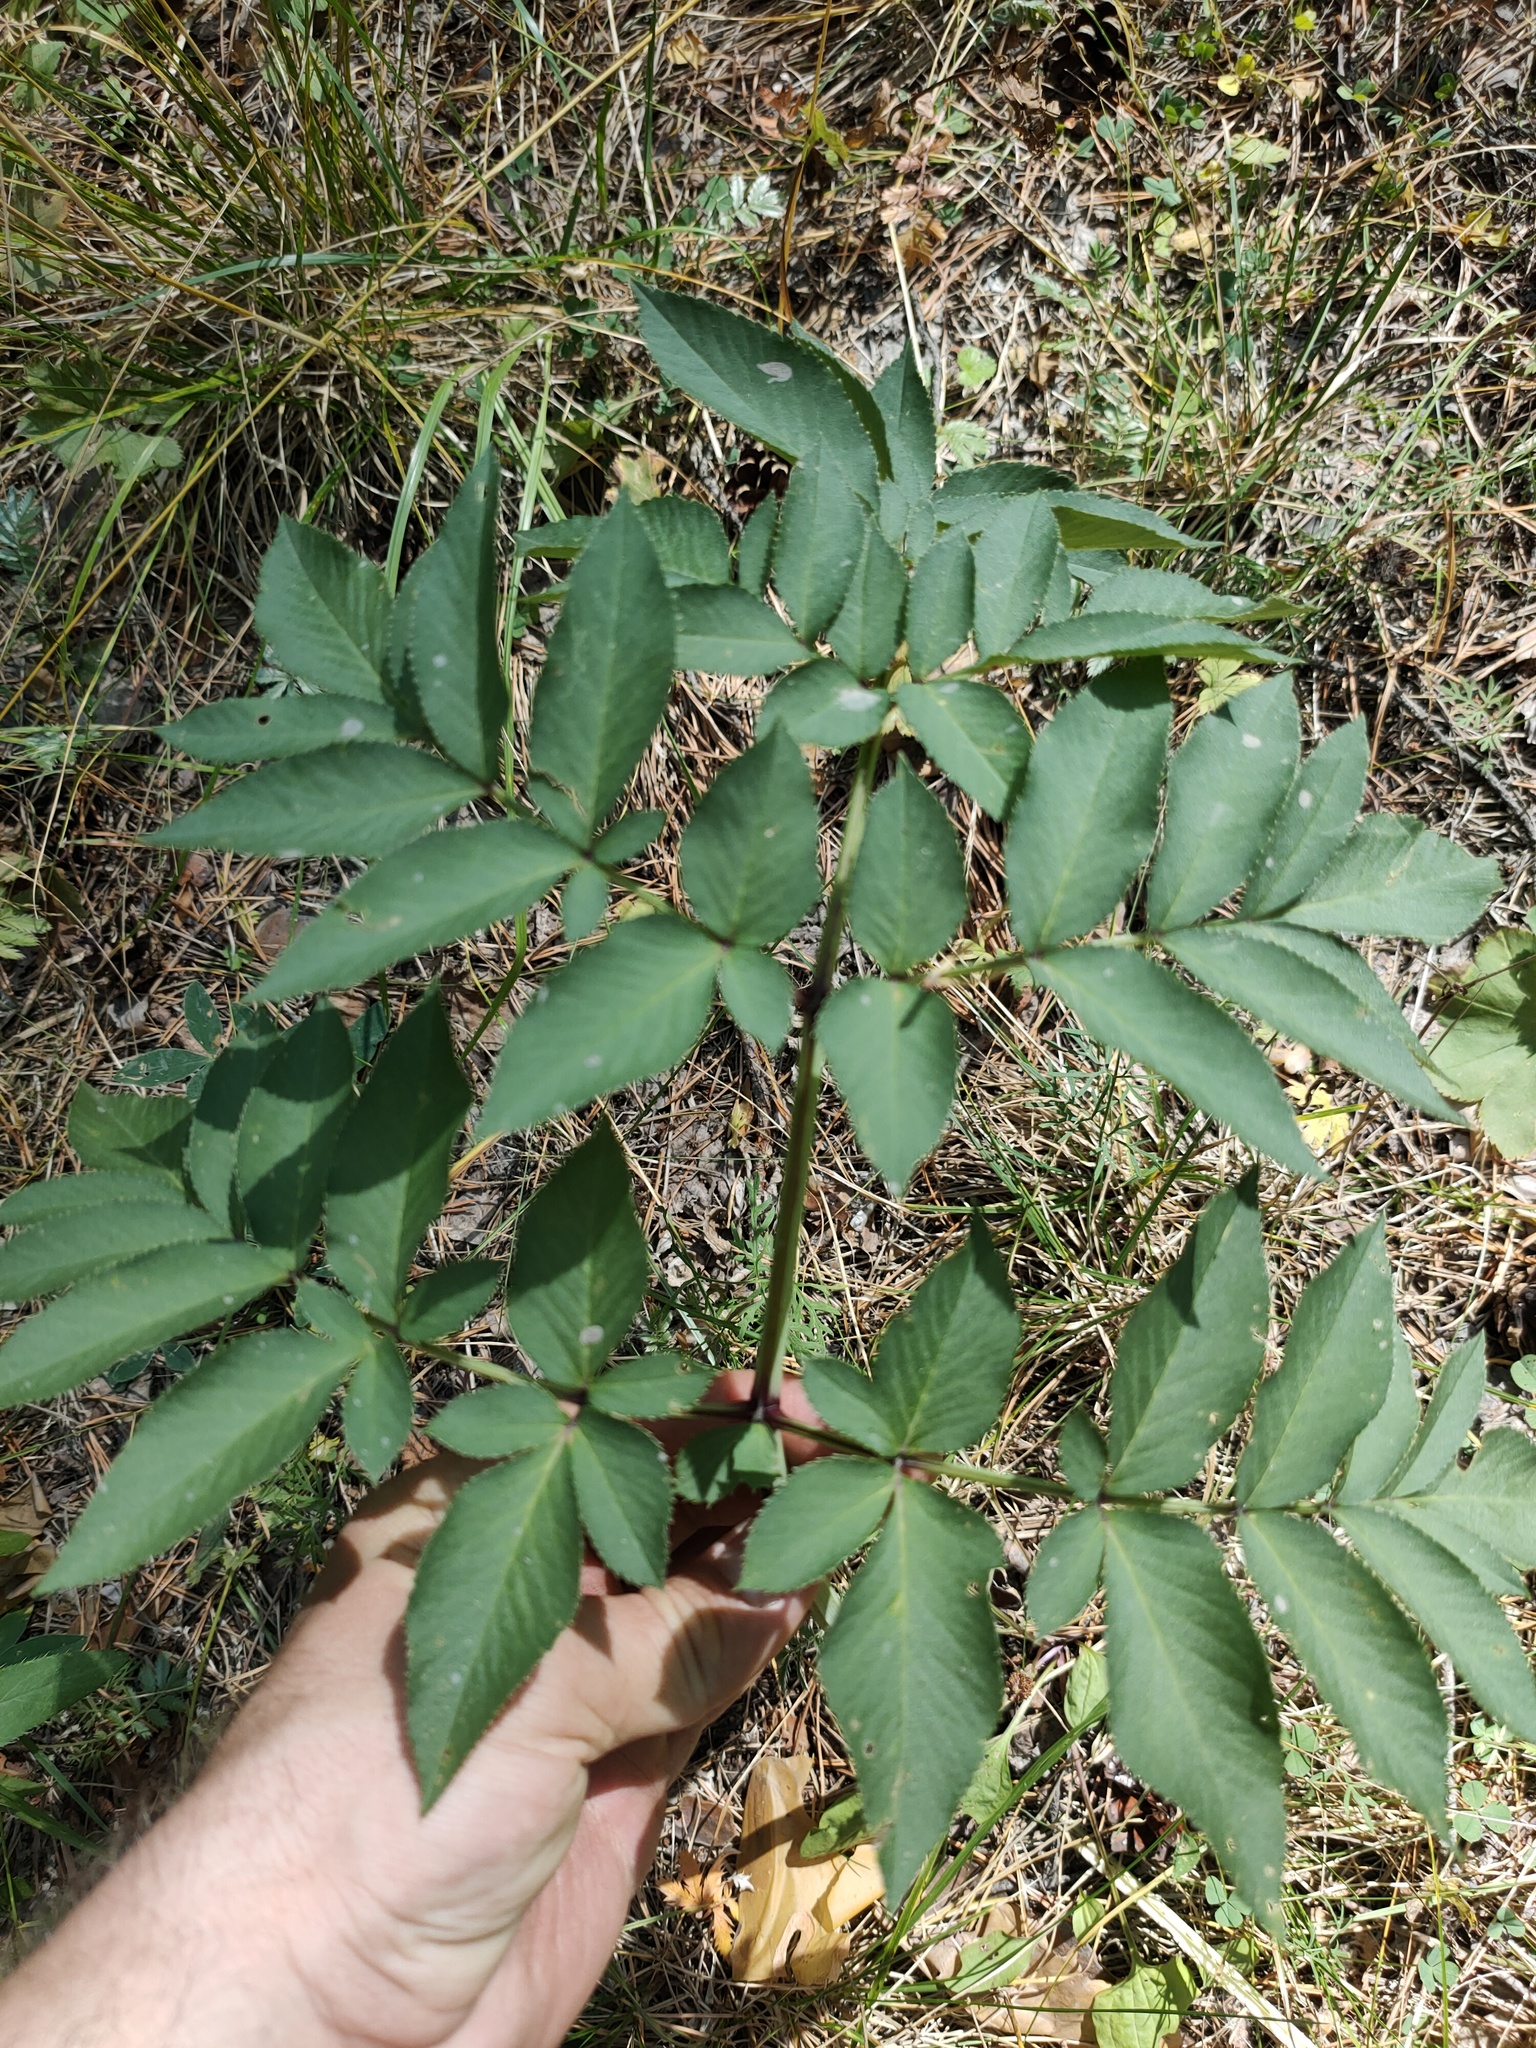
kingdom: Plantae
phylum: Tracheophyta
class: Magnoliopsida
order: Apiales
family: Apiaceae
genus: Angelica
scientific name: Angelica sylvestris
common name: Wild angelica
